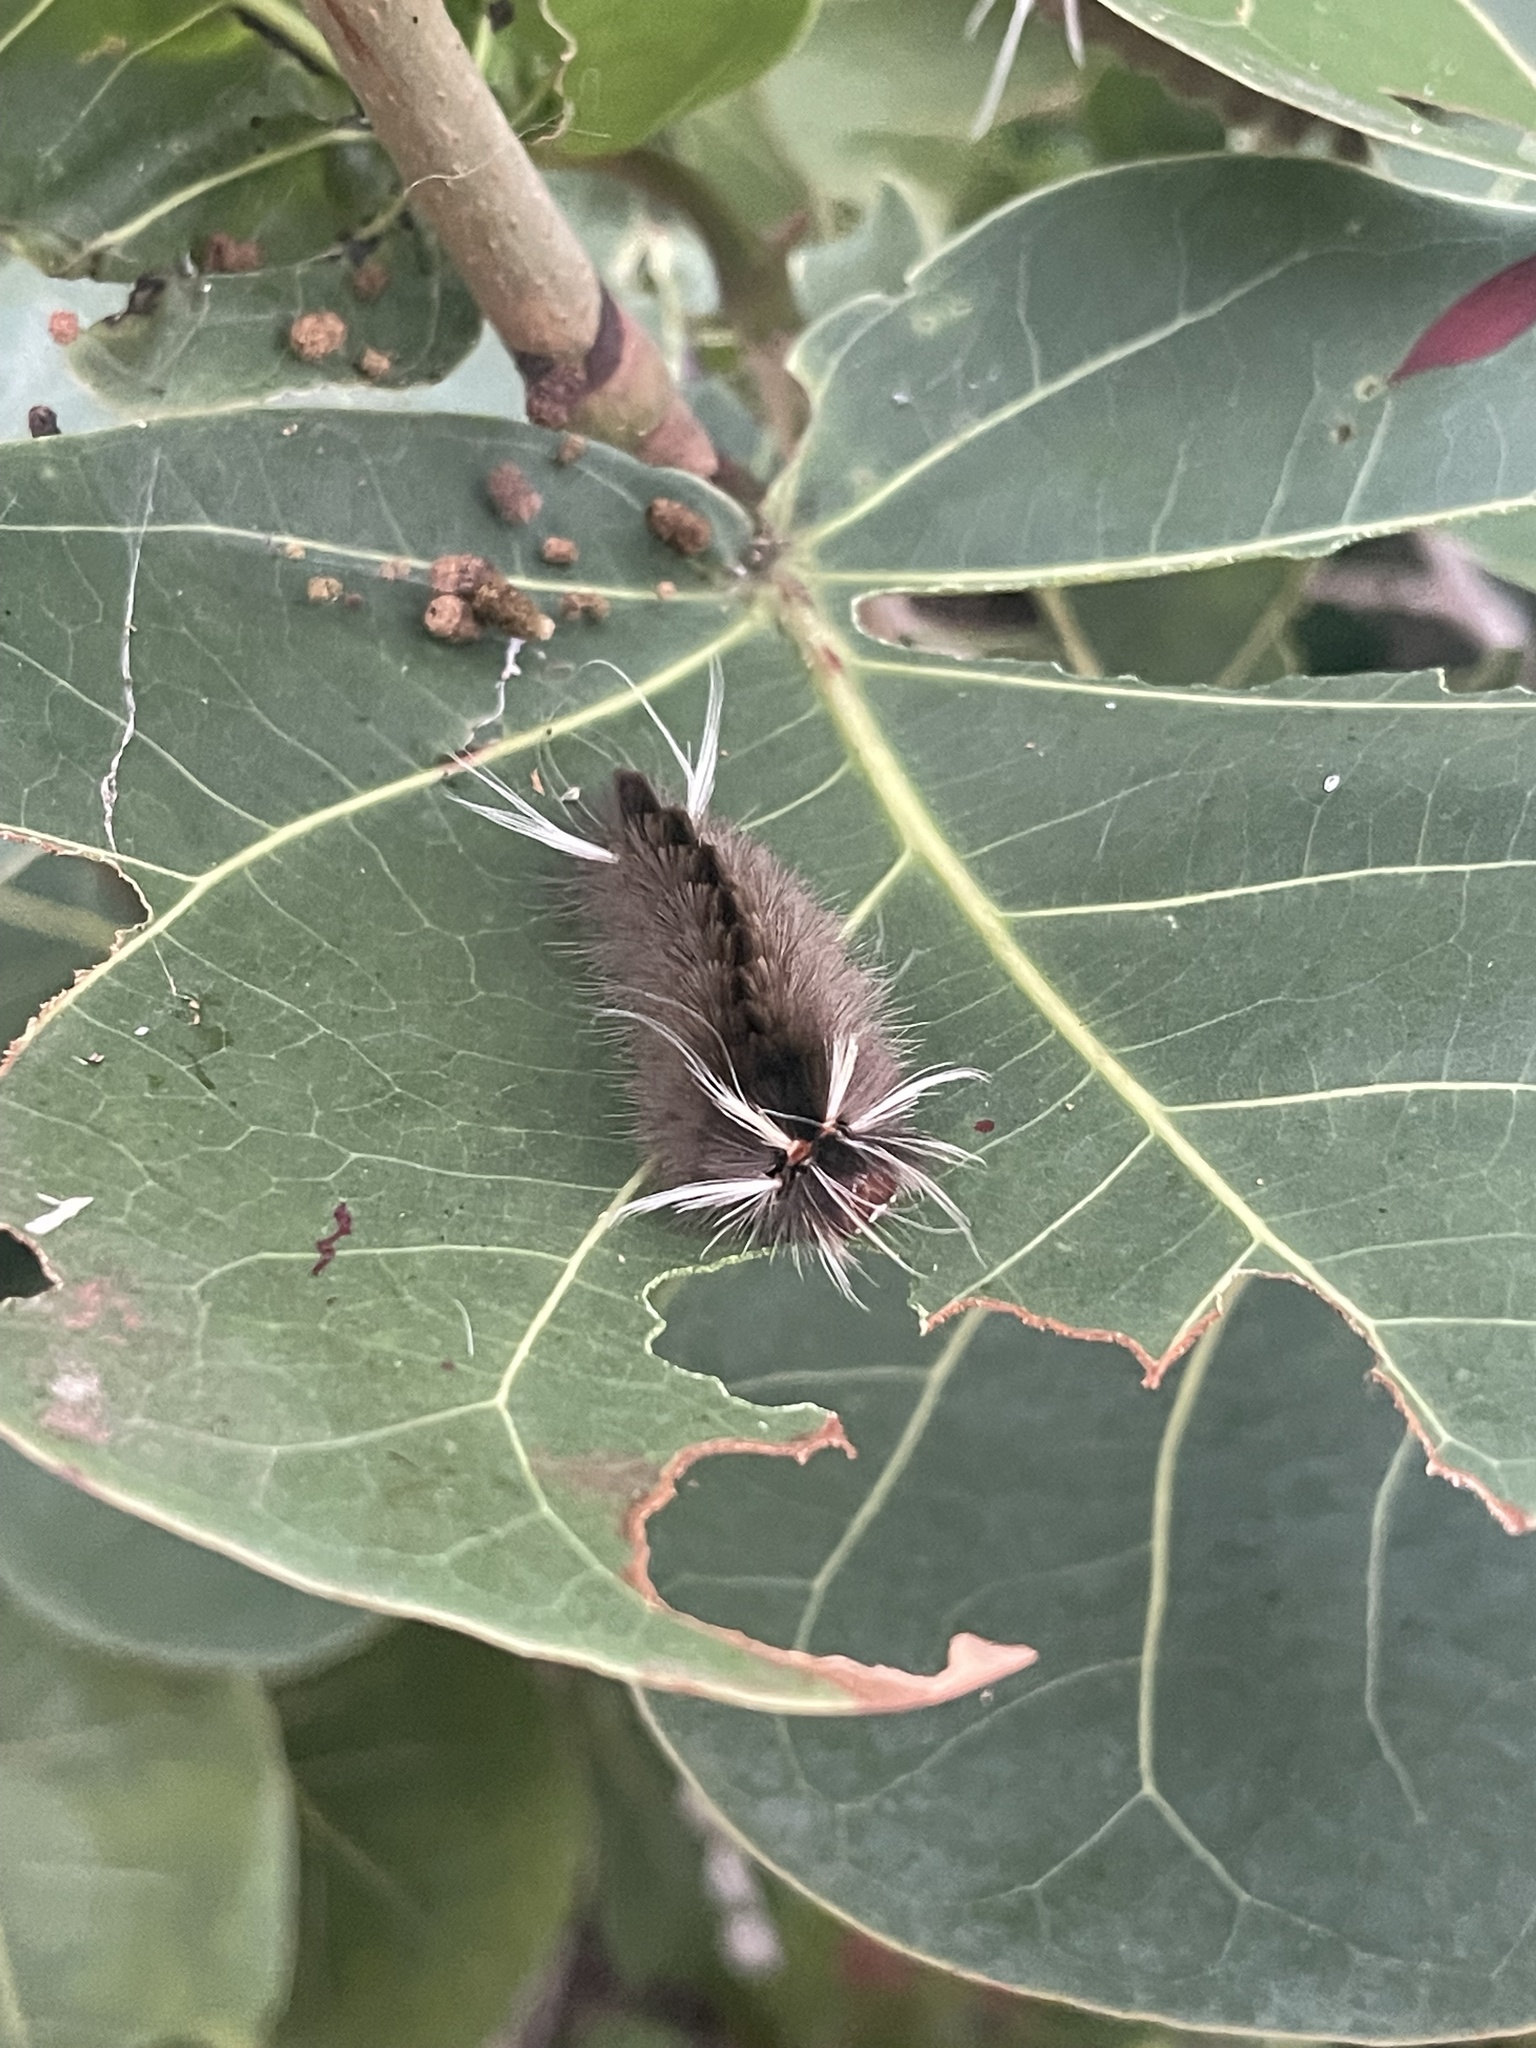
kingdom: Animalia
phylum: Arthropoda
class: Insecta
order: Lepidoptera
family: Erebidae
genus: Halysidota
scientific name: Halysidota cinctipes
